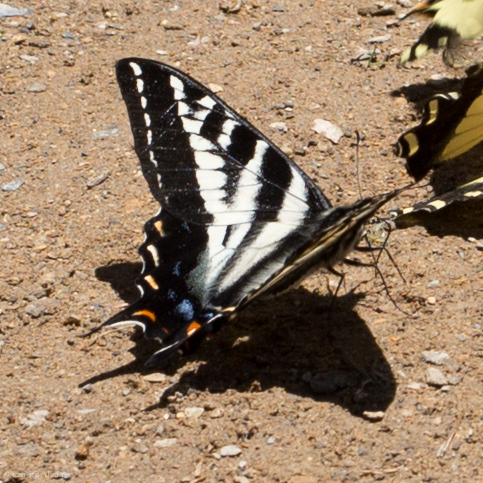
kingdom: Animalia
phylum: Arthropoda
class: Insecta
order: Lepidoptera
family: Papilionidae
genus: Papilio
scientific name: Papilio eurymedon
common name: Pale tiger swallowtail
